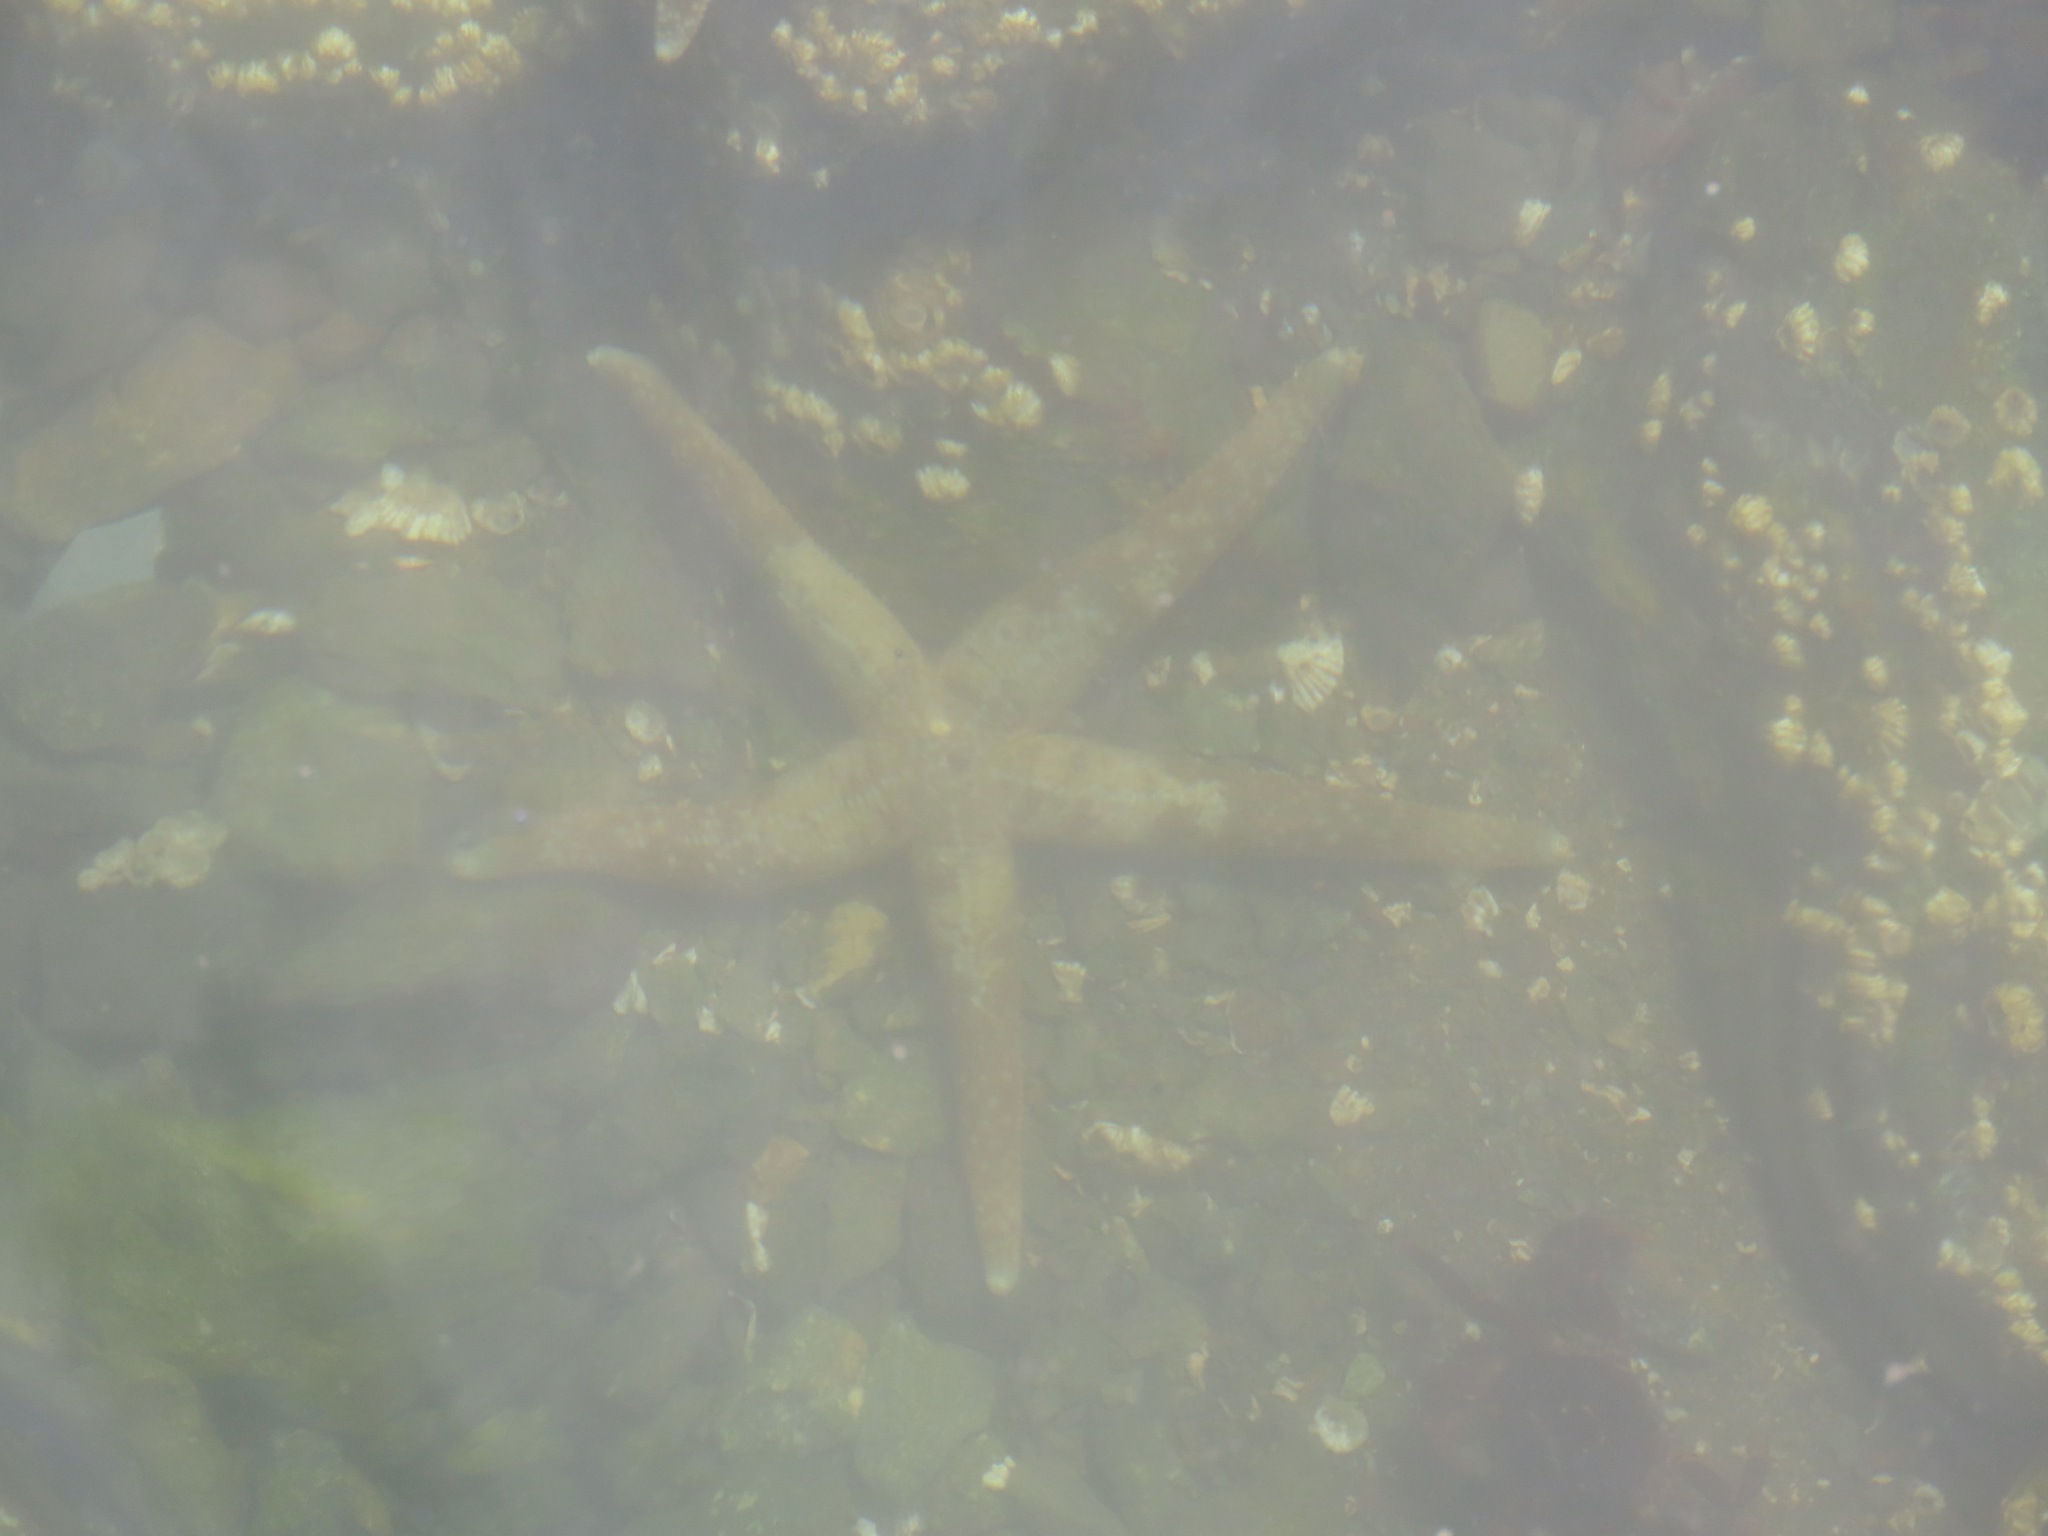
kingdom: Animalia
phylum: Echinodermata
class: Asteroidea
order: Forcipulatida
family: Asteriidae
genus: Evasterias
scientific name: Evasterias troschelii
